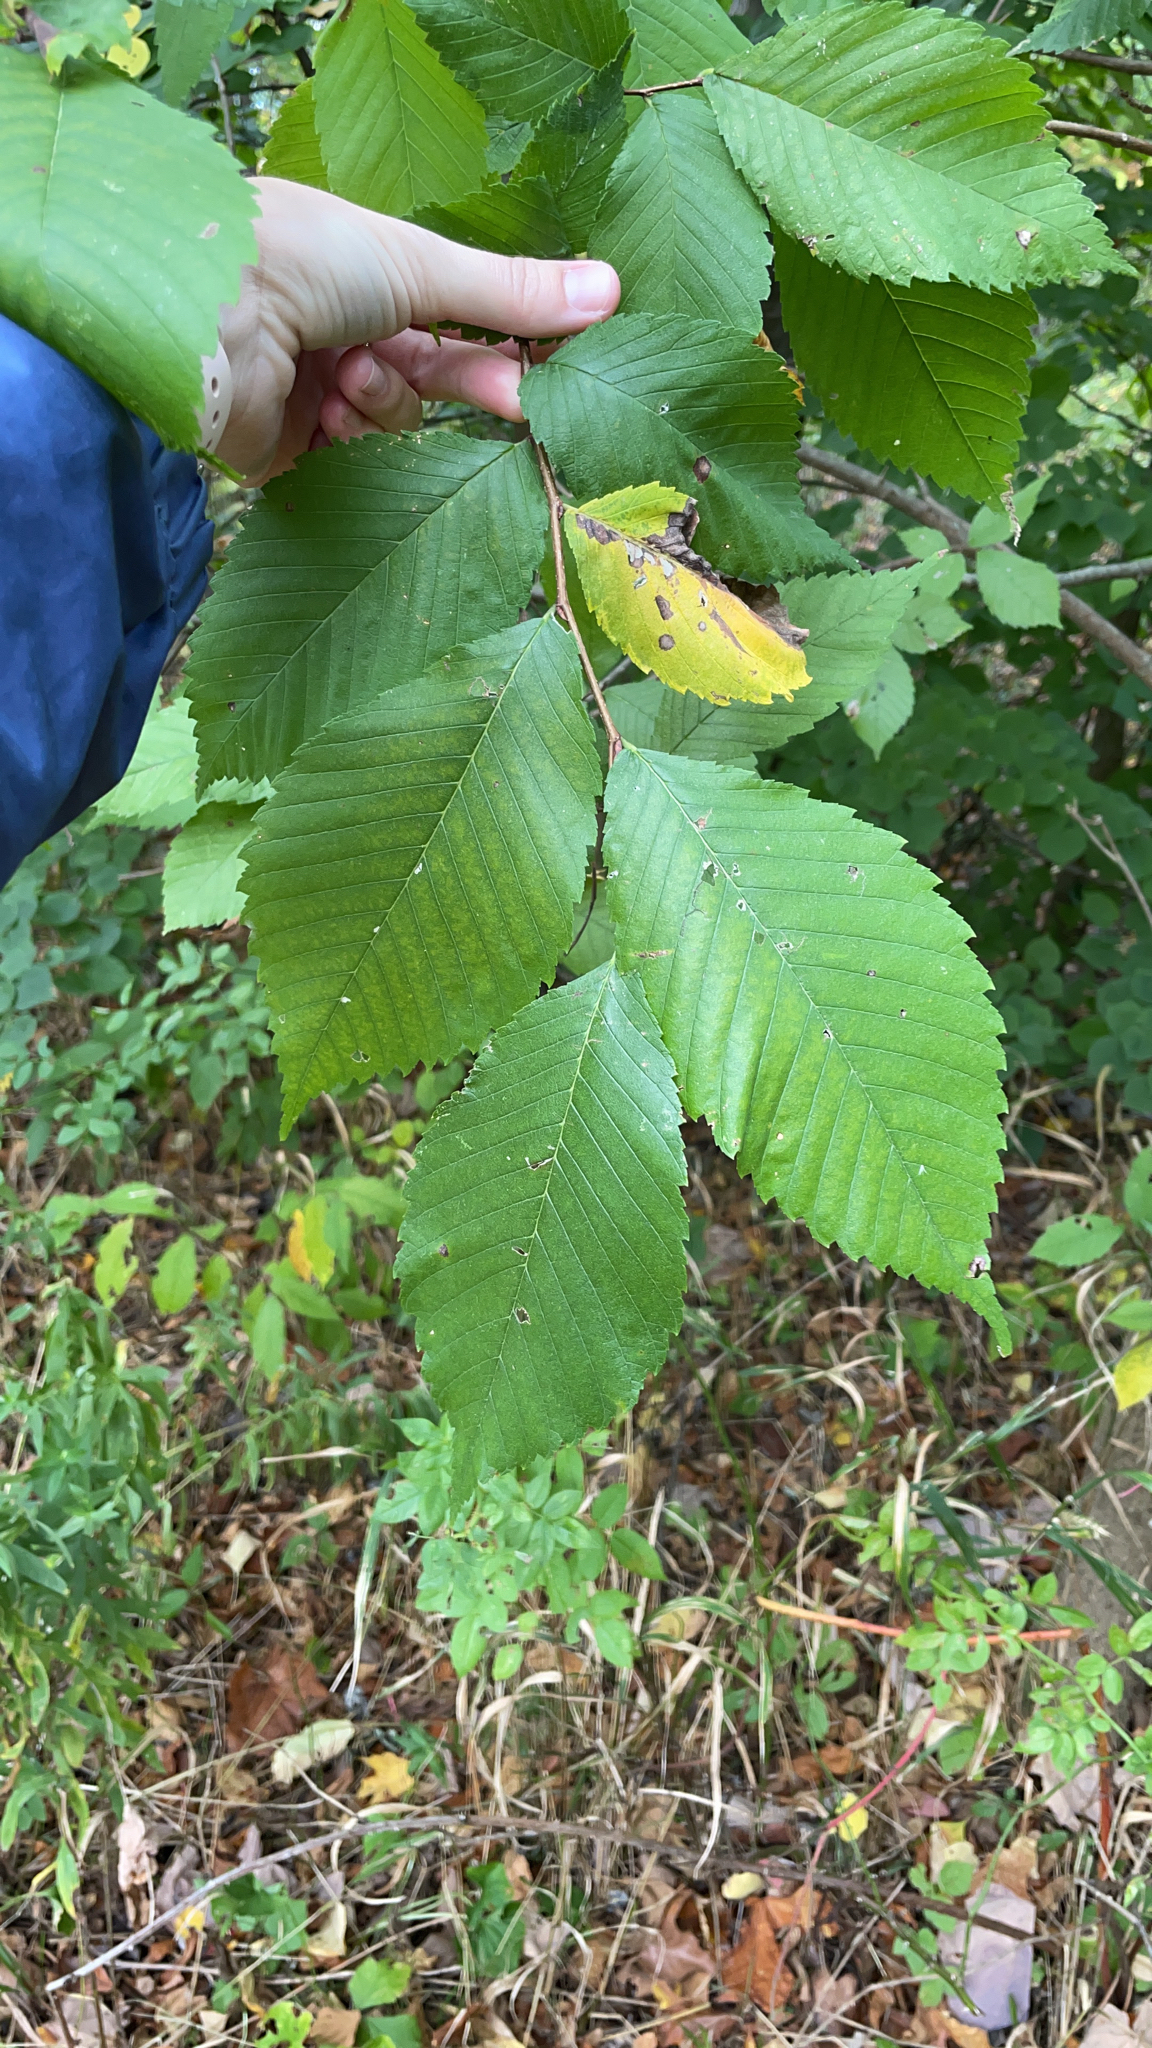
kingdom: Plantae
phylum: Tracheophyta
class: Magnoliopsida
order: Rosales
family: Ulmaceae
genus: Ulmus
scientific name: Ulmus americana
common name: American elm
